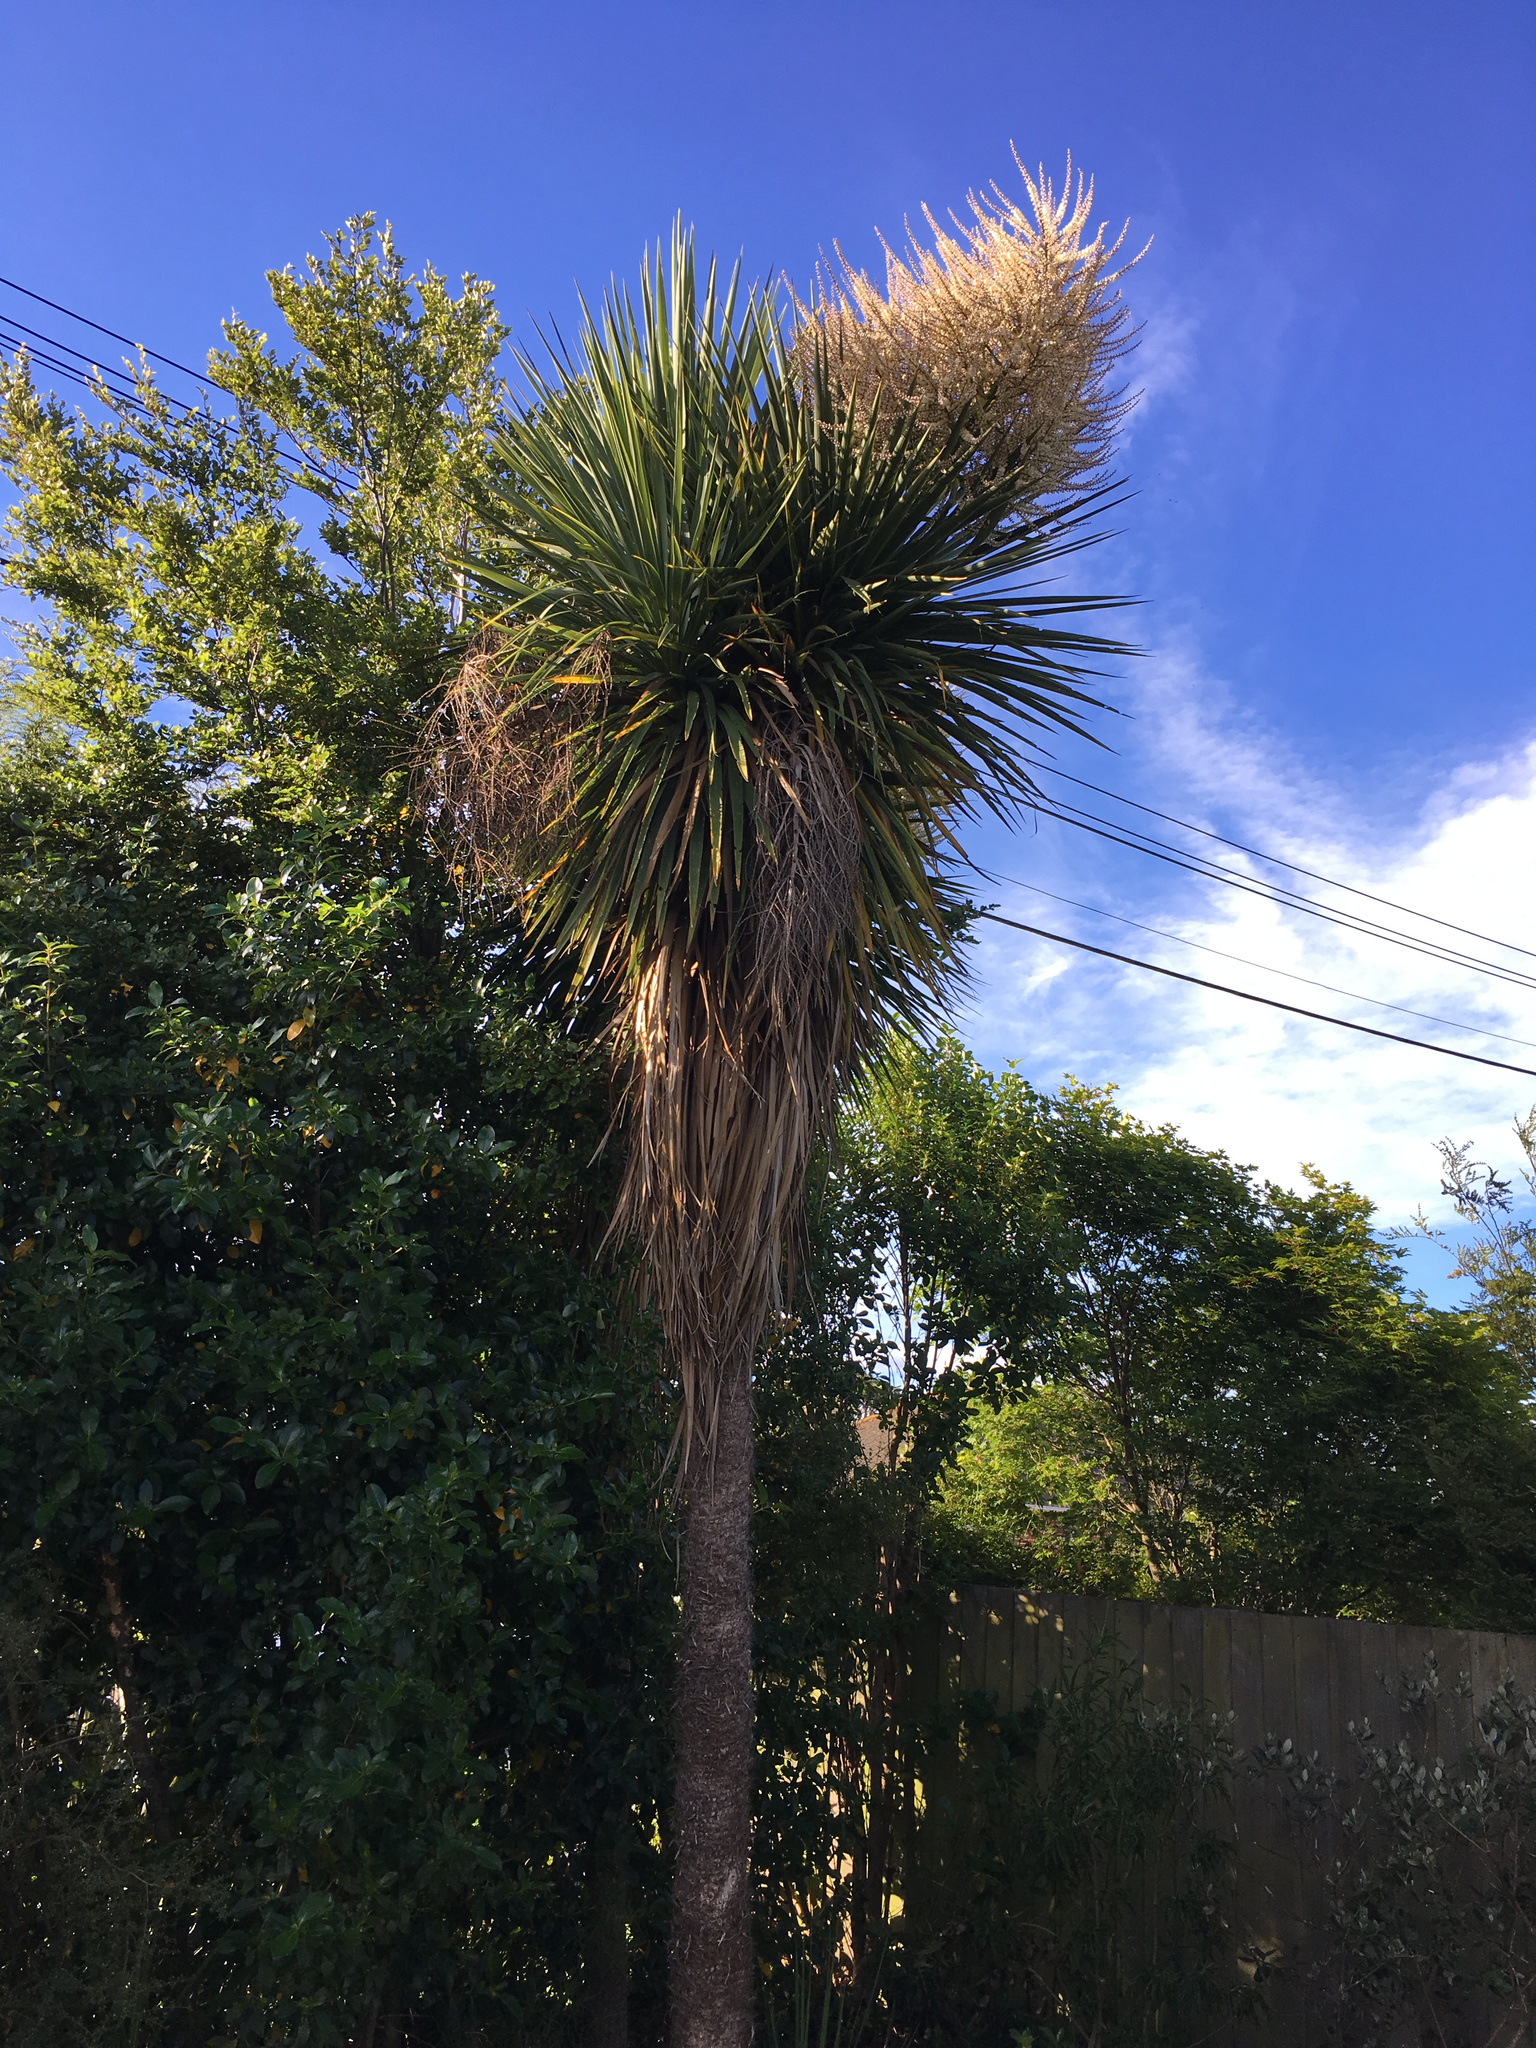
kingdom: Plantae
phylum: Tracheophyta
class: Liliopsida
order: Asparagales
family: Asparagaceae
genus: Cordyline
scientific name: Cordyline australis
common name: Cabbage-palm
